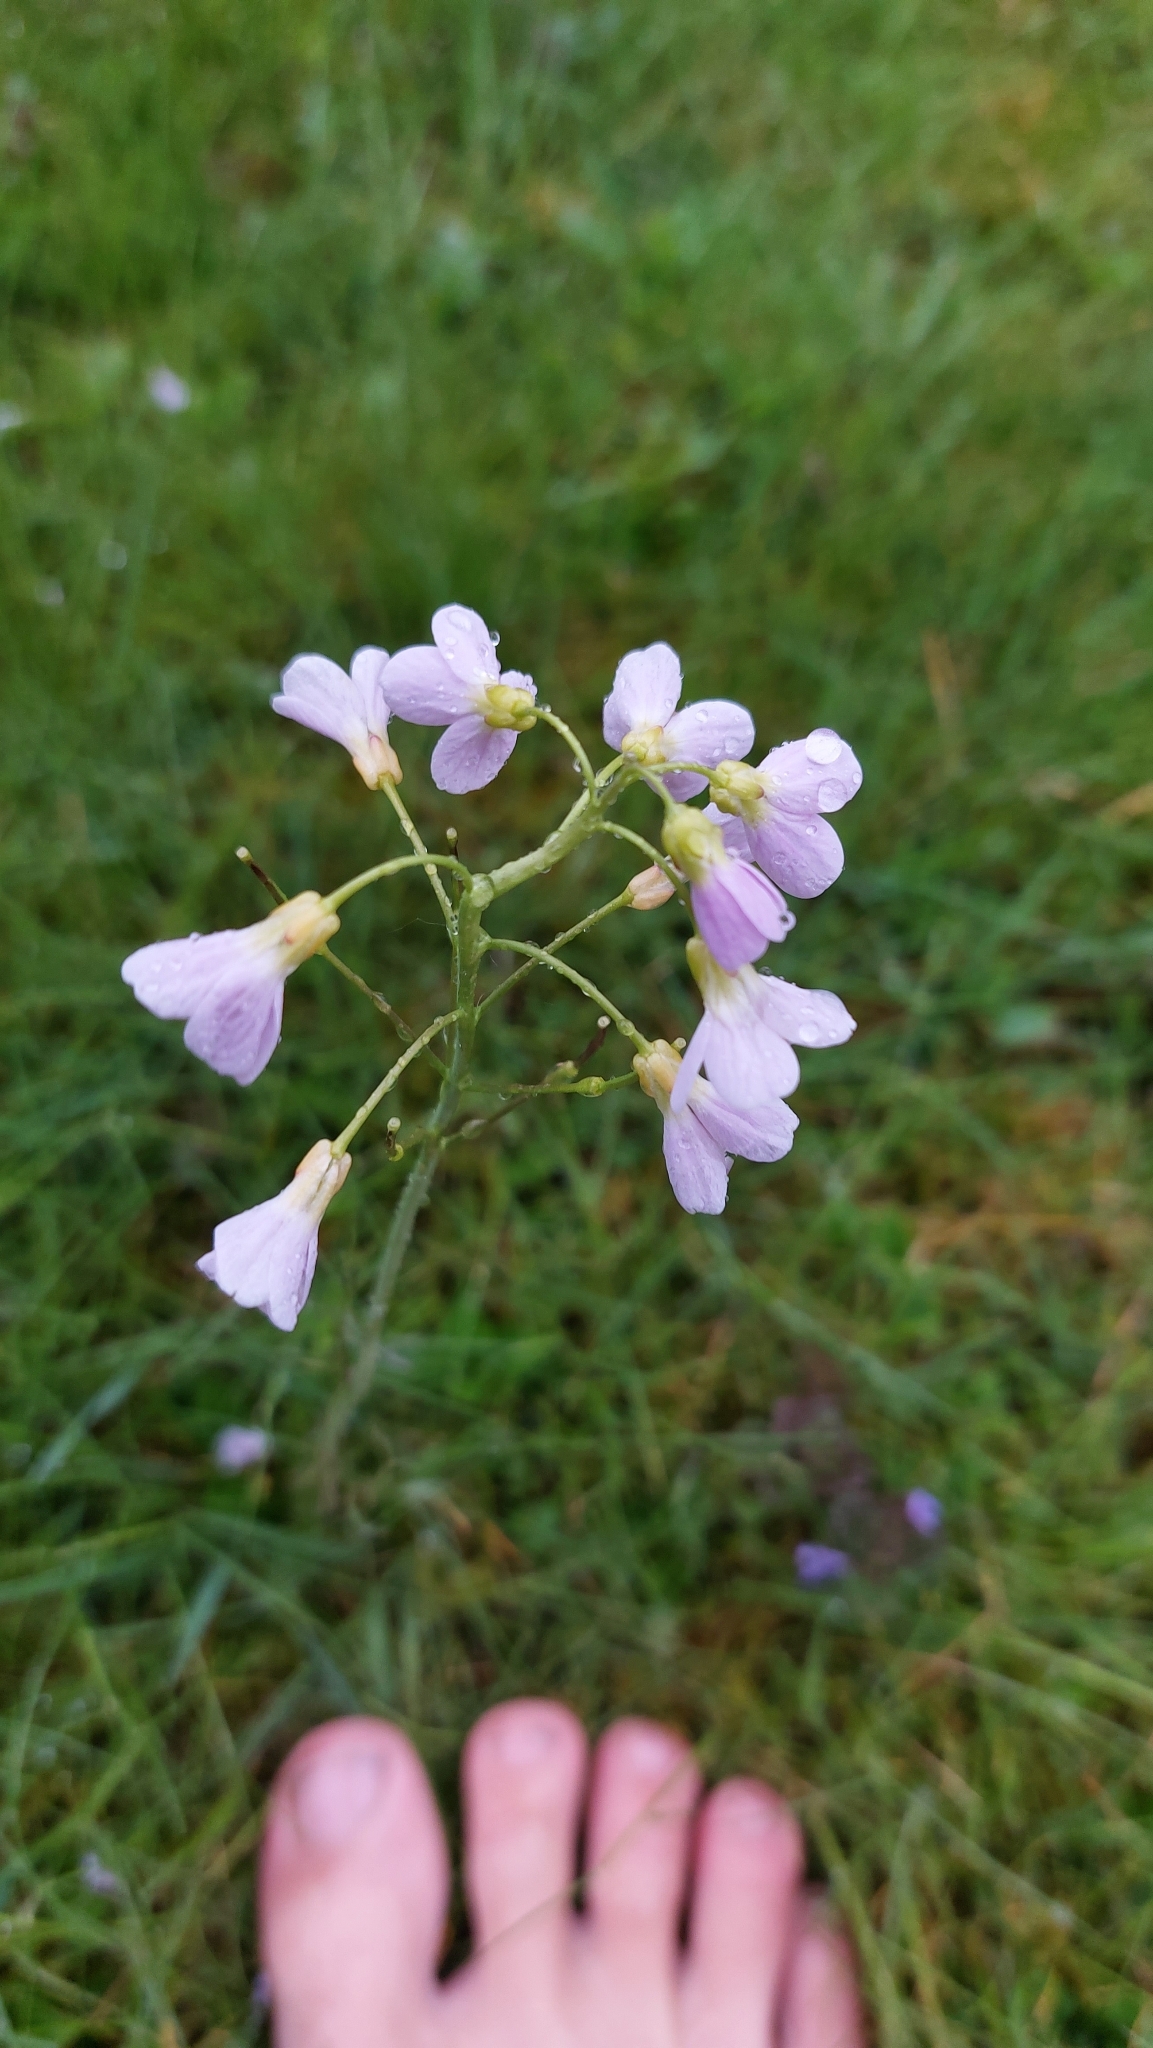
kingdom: Plantae
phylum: Tracheophyta
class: Magnoliopsida
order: Brassicales
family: Brassicaceae
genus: Cardamine
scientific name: Cardamine pratensis
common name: Cuckoo flower
